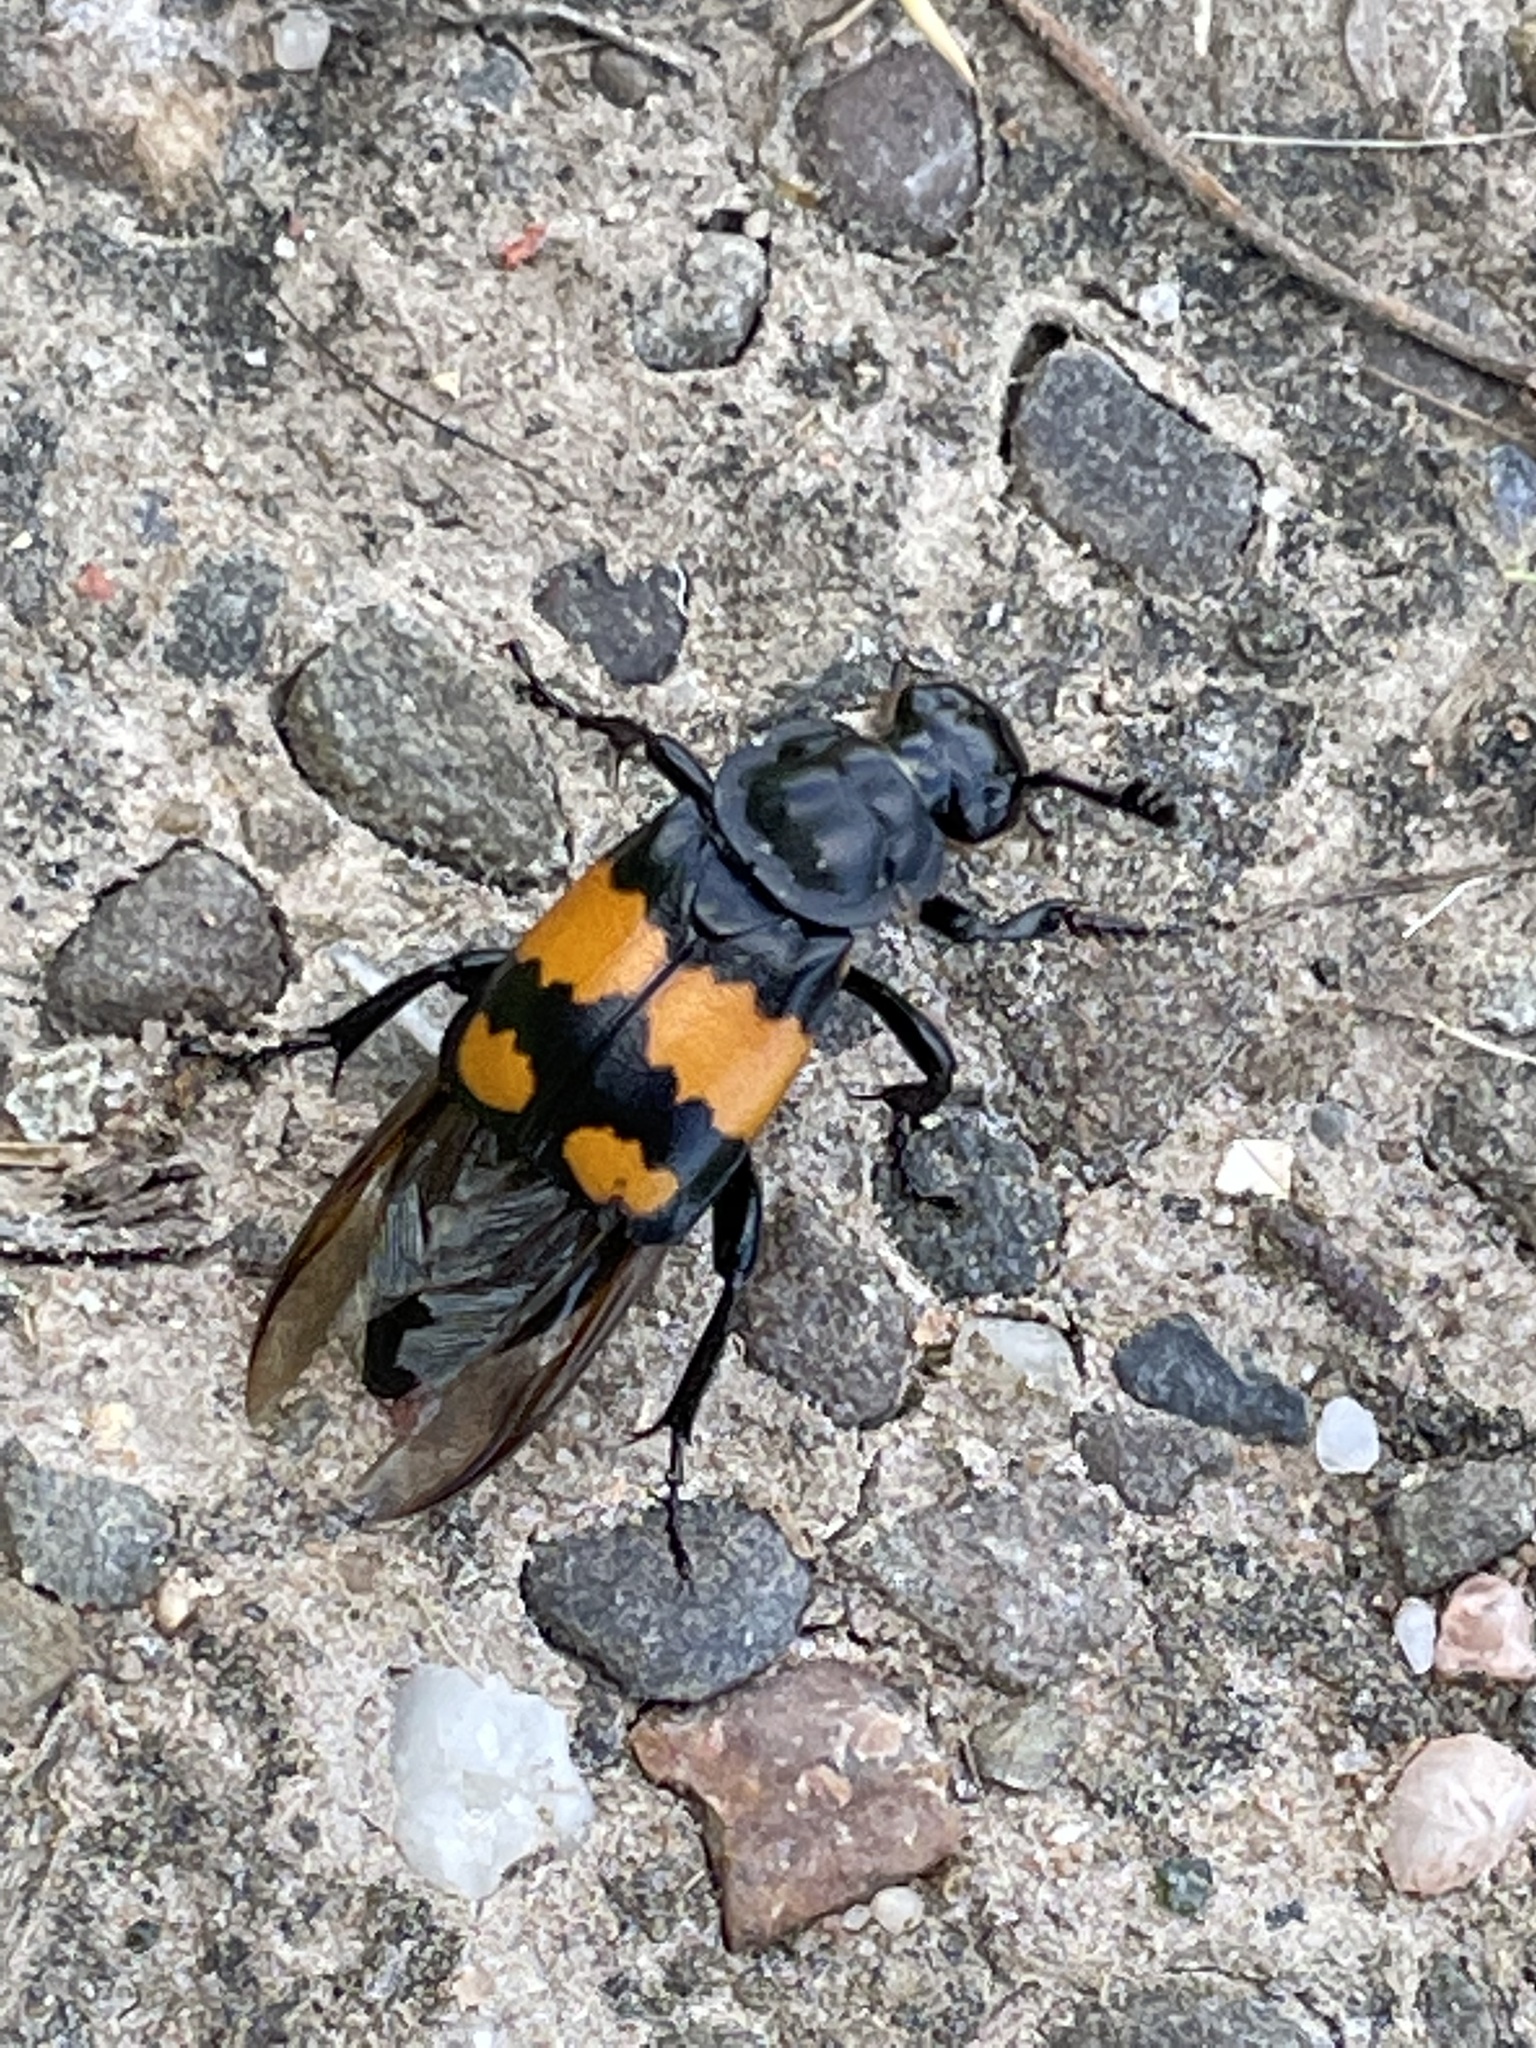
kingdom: Animalia
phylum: Arthropoda
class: Insecta
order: Coleoptera
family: Staphylinidae
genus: Nicrophorus
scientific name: Nicrophorus vespilloides
